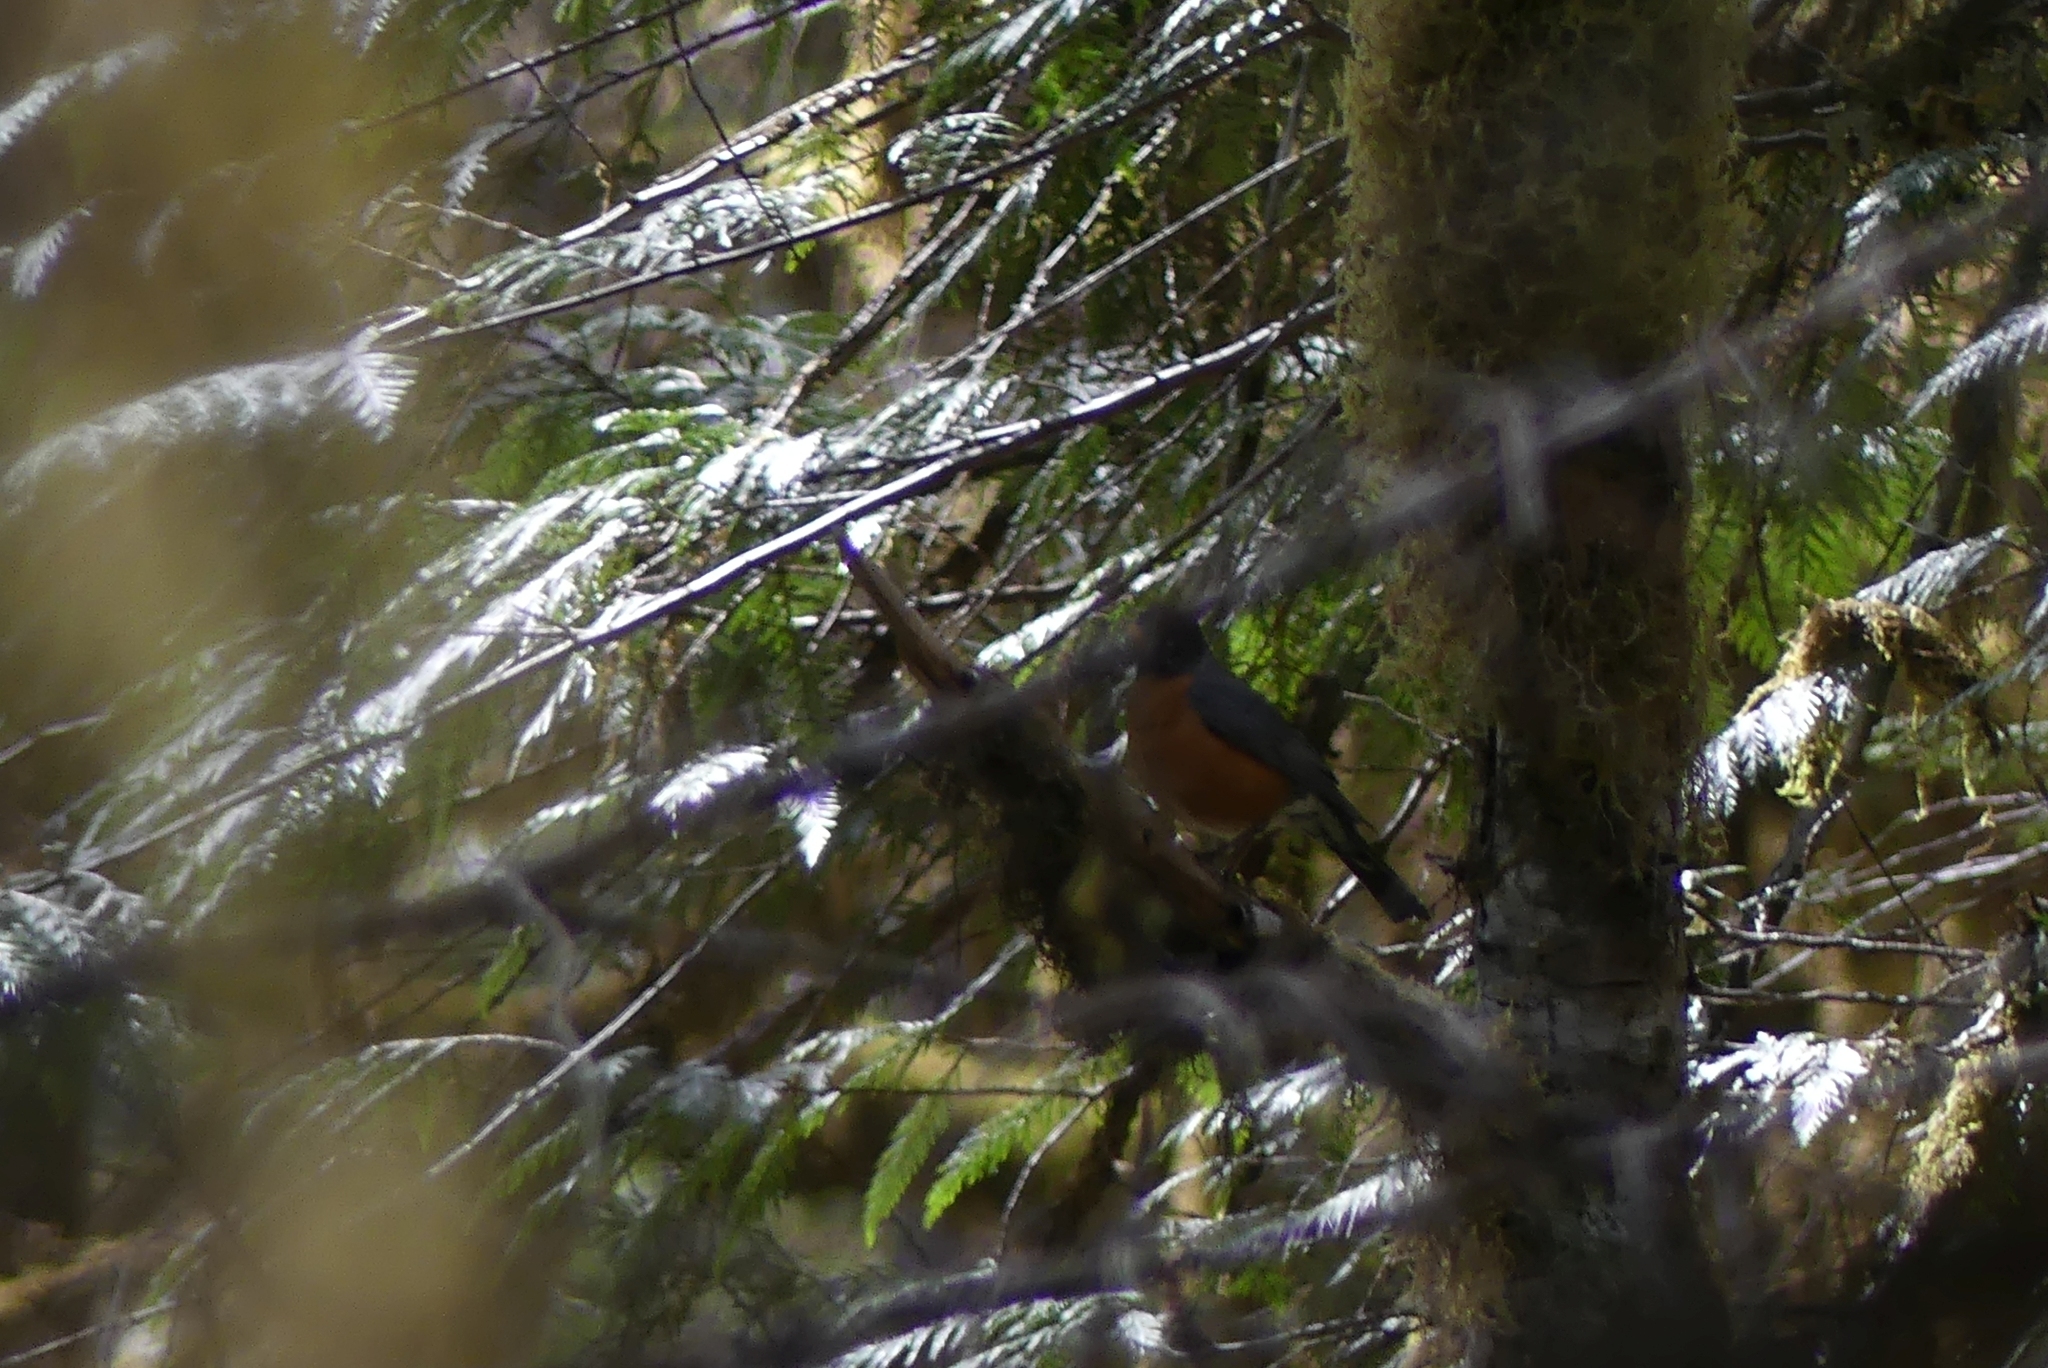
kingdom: Animalia
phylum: Chordata
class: Aves
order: Passeriformes
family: Turdidae
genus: Turdus
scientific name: Turdus migratorius
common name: American robin
